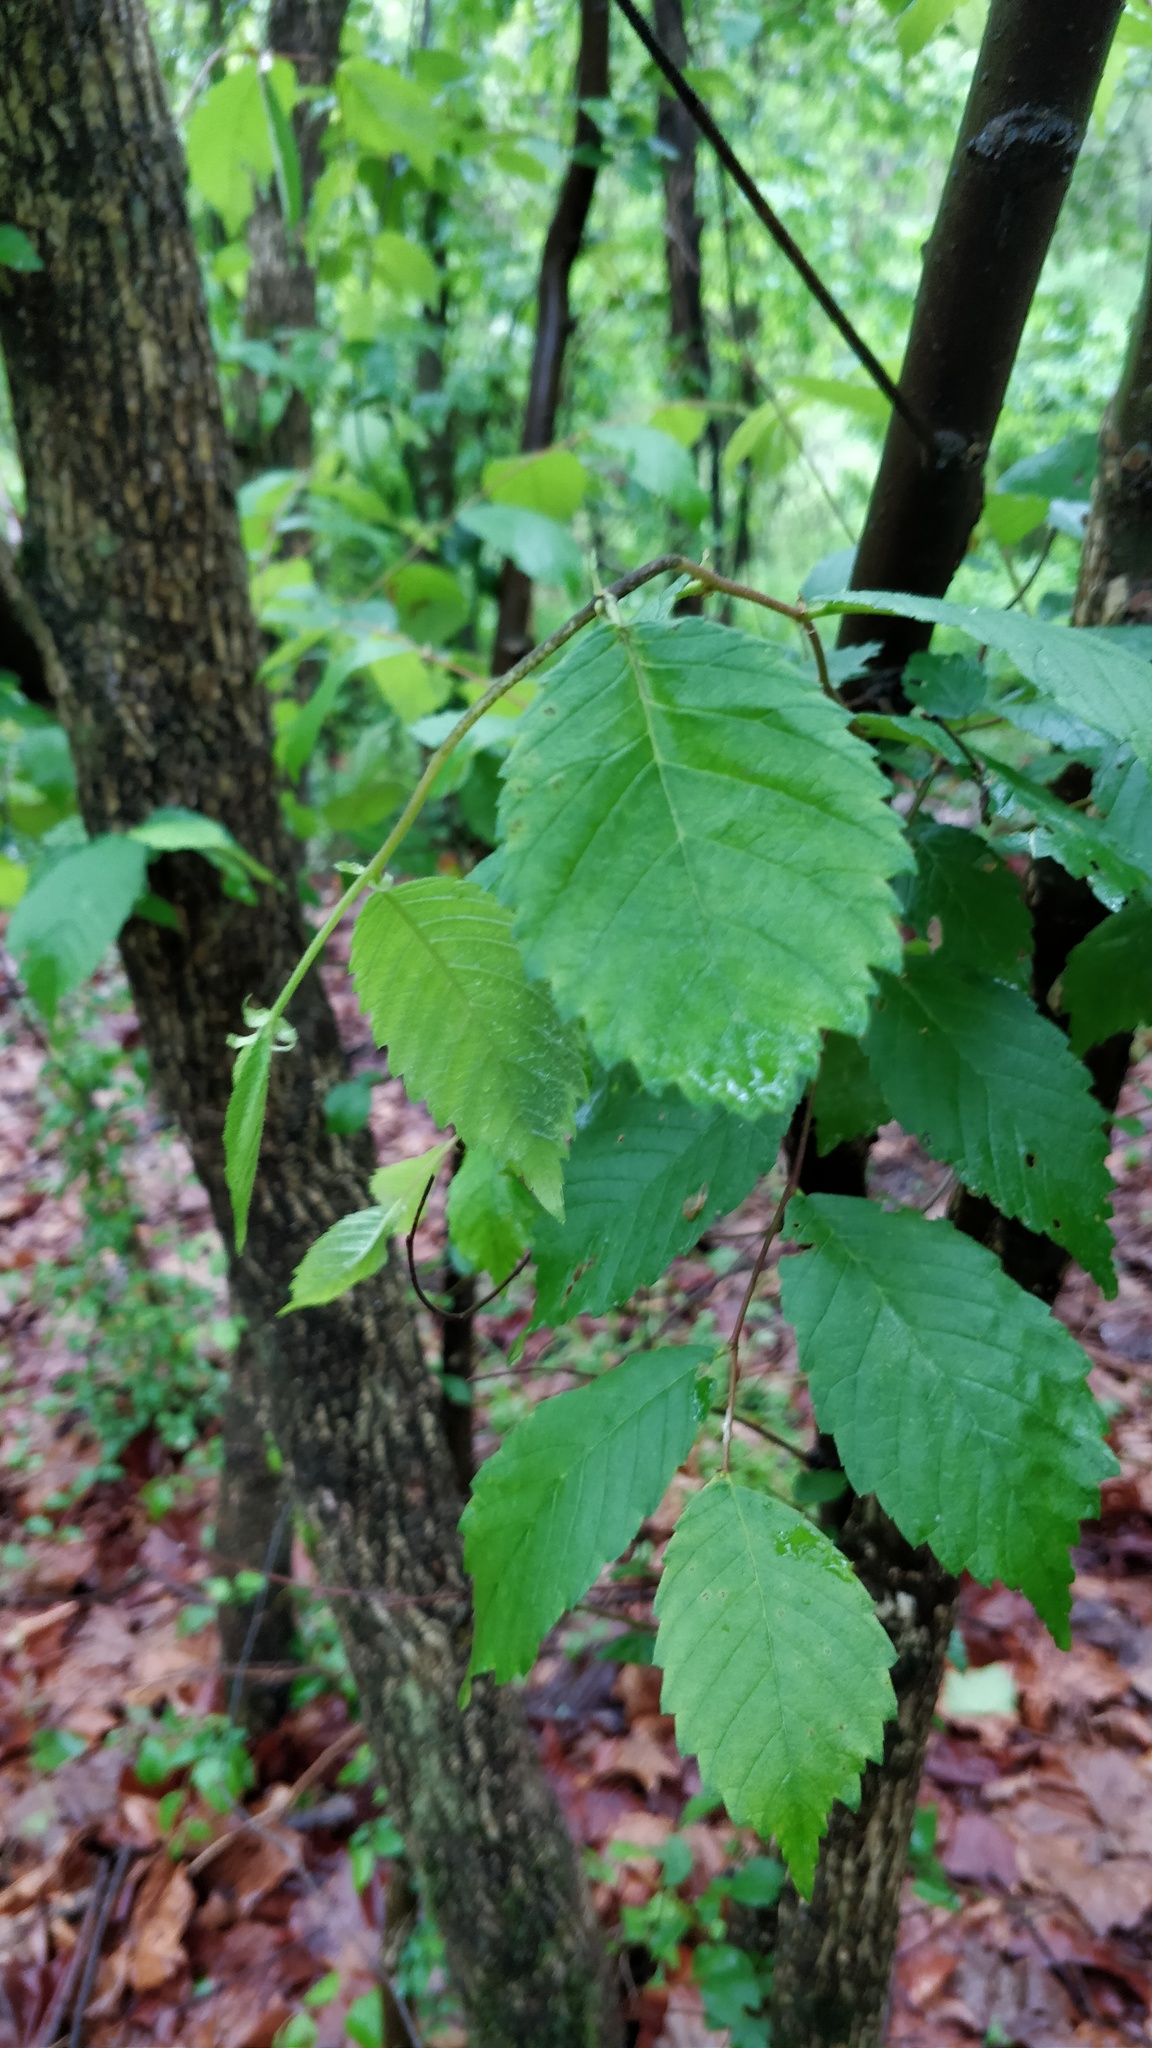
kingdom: Plantae
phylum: Tracheophyta
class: Magnoliopsida
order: Rosales
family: Ulmaceae
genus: Ulmus
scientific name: Ulmus americana
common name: American elm
